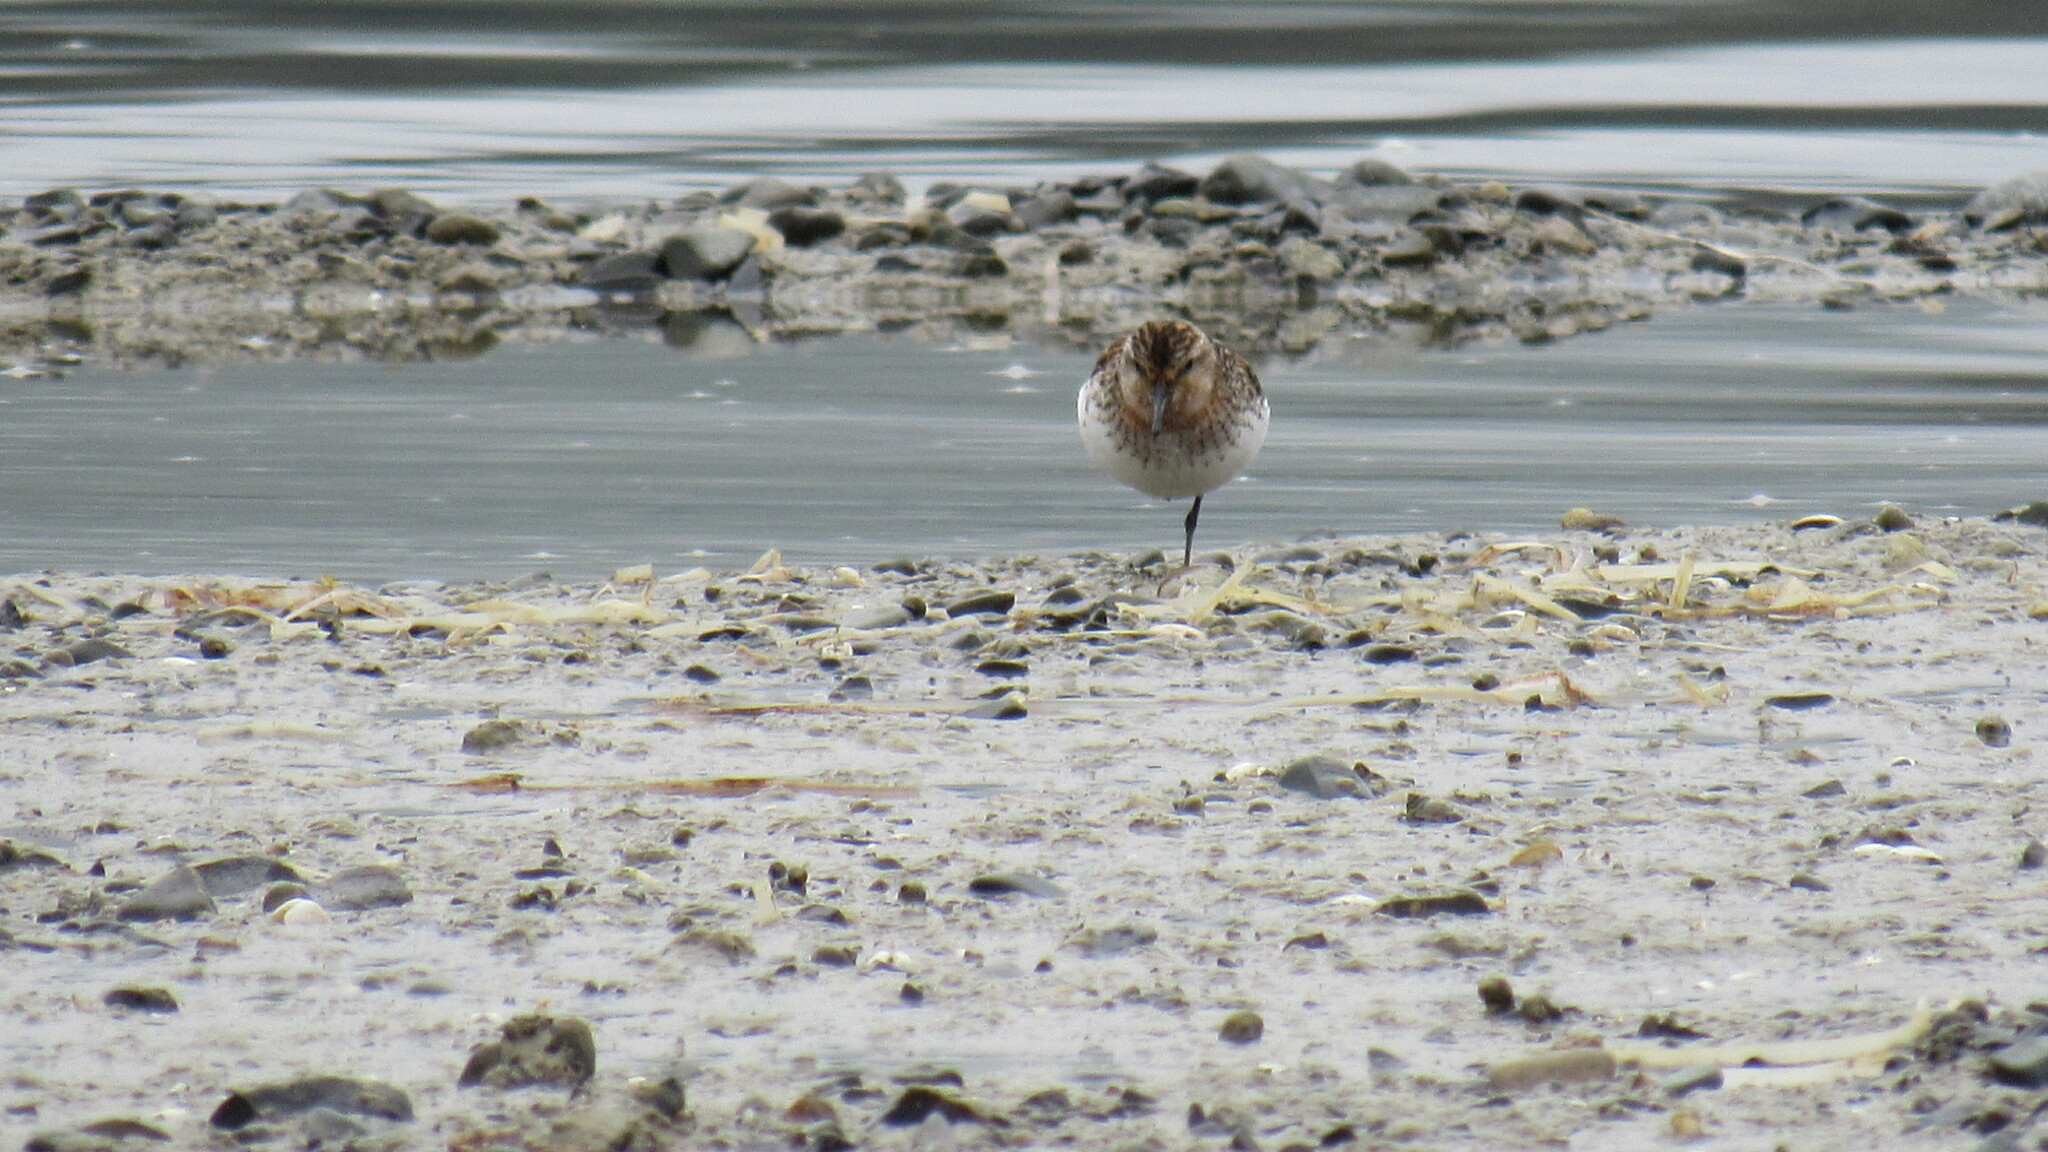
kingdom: Animalia
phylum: Chordata
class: Aves
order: Charadriiformes
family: Scolopacidae
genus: Calidris
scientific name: Calidris ruficollis
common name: Red-necked stint
